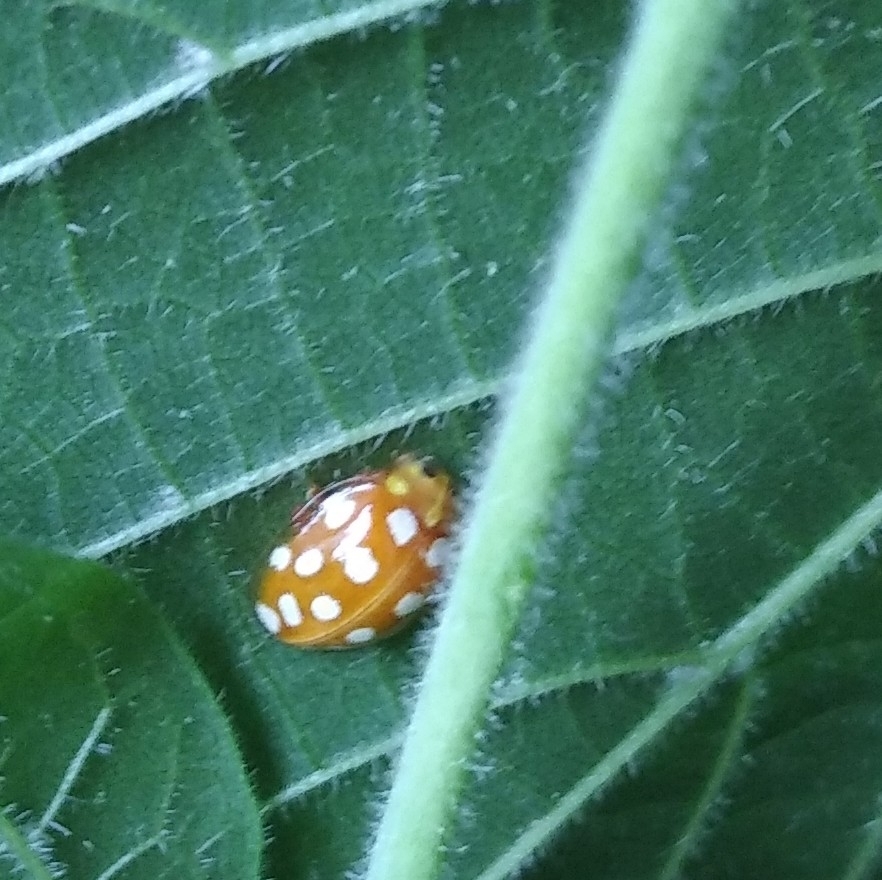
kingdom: Animalia
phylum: Arthropoda
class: Insecta
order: Coleoptera
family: Coccinellidae
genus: Halyzia
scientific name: Halyzia sedecimguttata
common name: Orange ladybird
